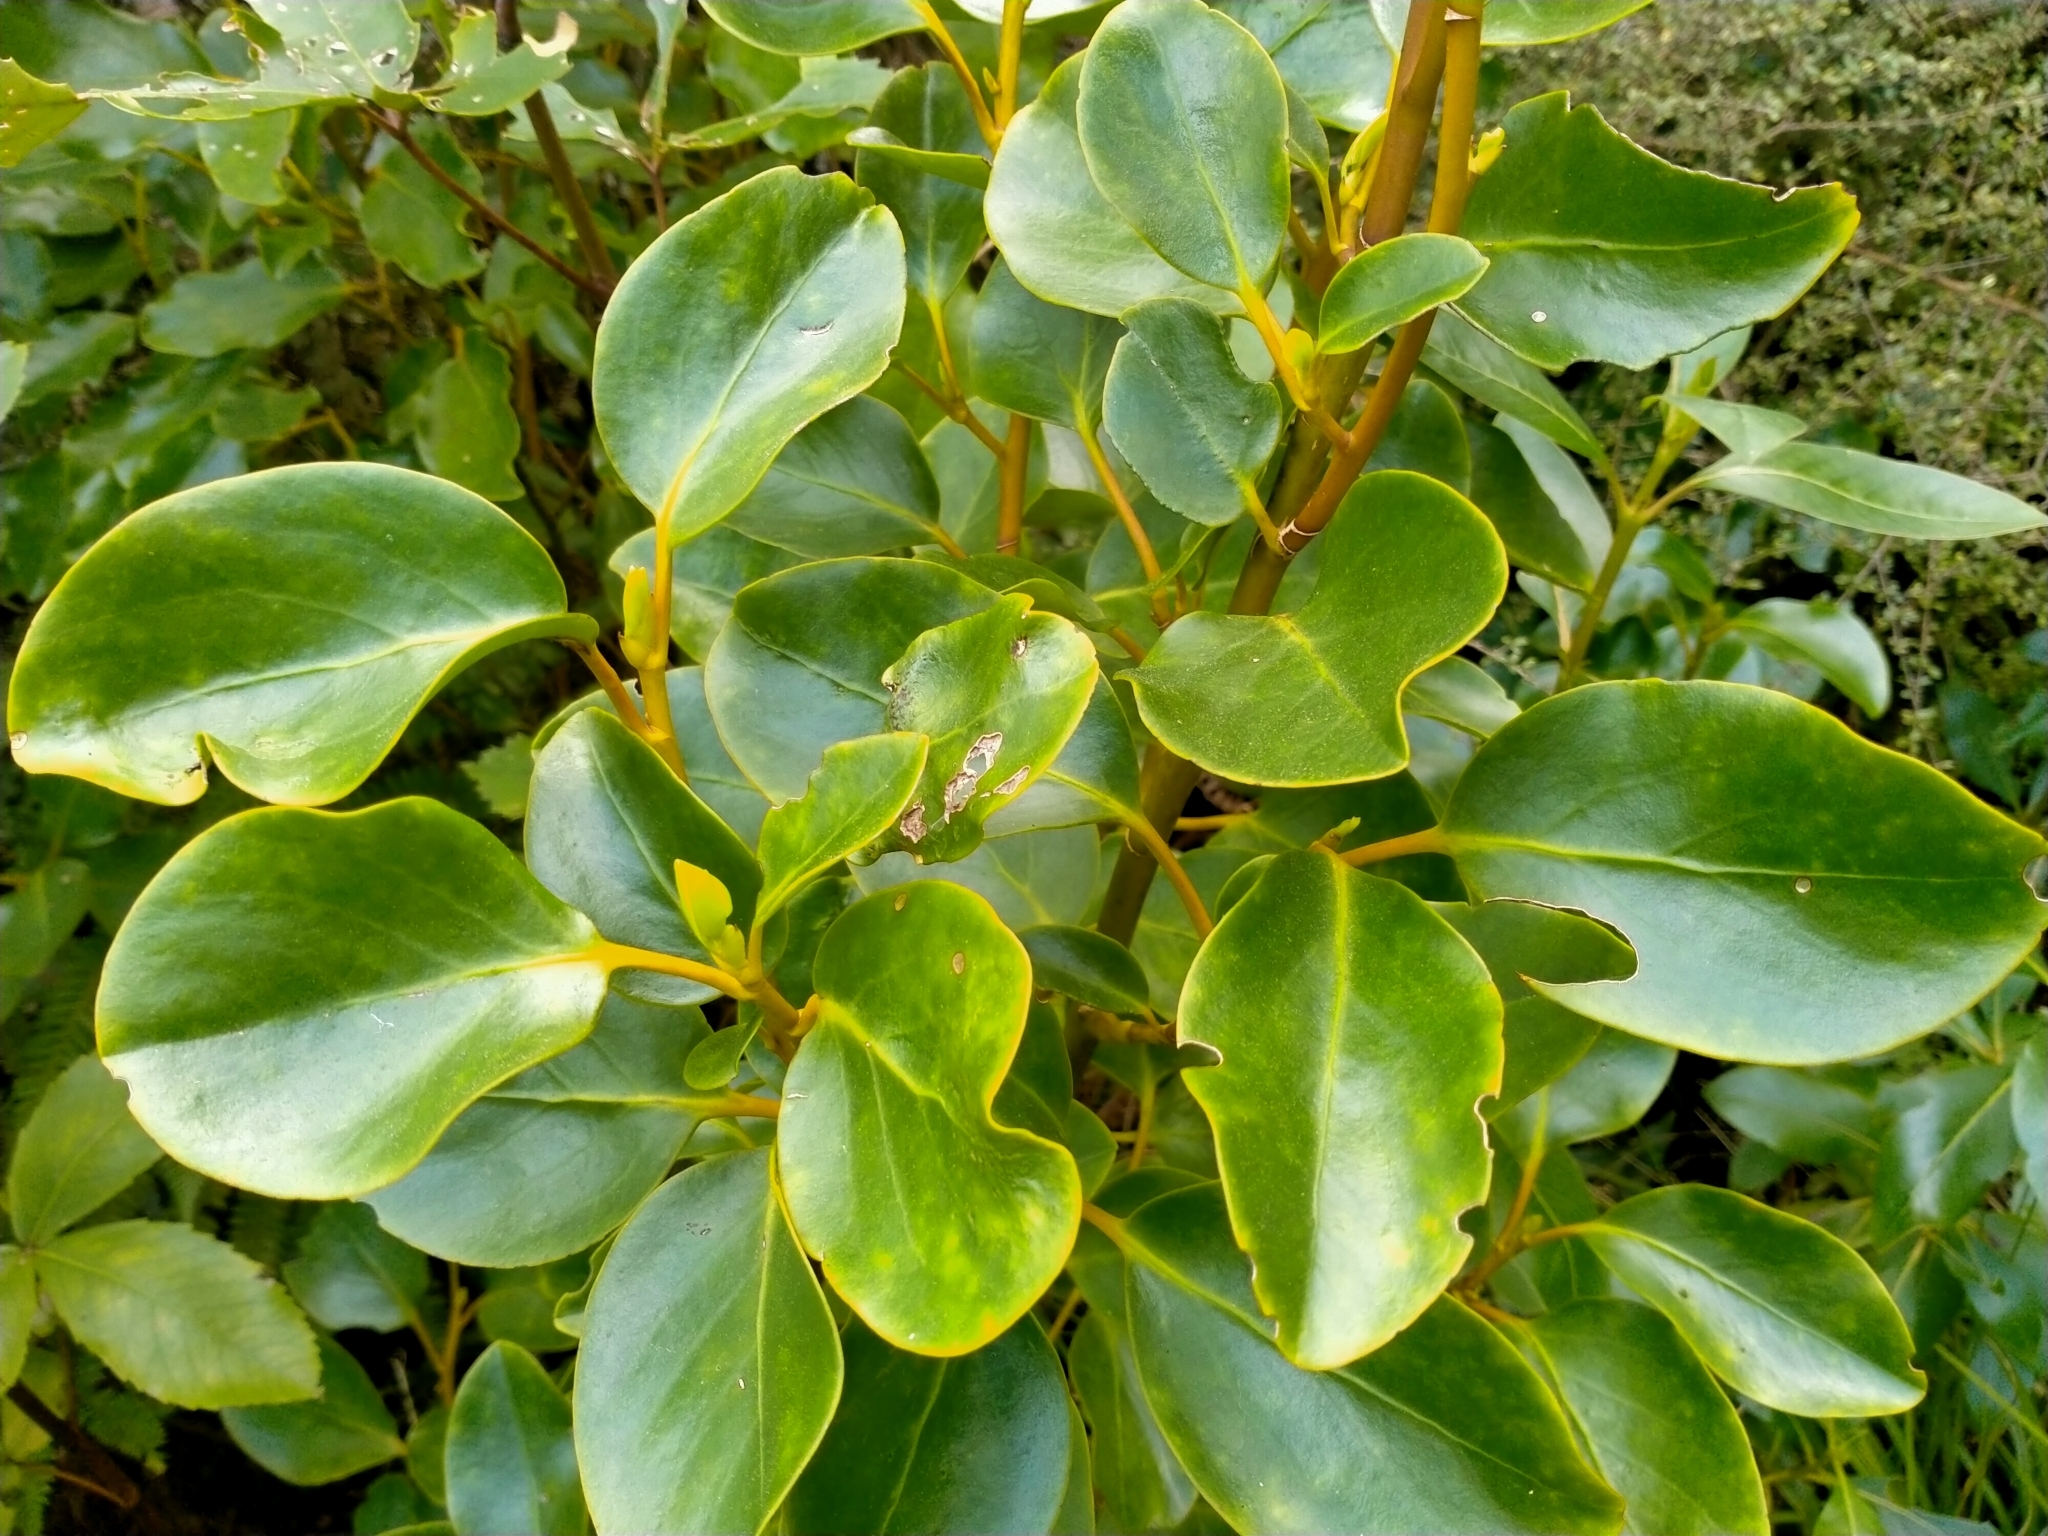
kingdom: Plantae
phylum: Tracheophyta
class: Magnoliopsida
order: Apiales
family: Griseliniaceae
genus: Griselinia
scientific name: Griselinia littoralis
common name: New zealand broadleaf
